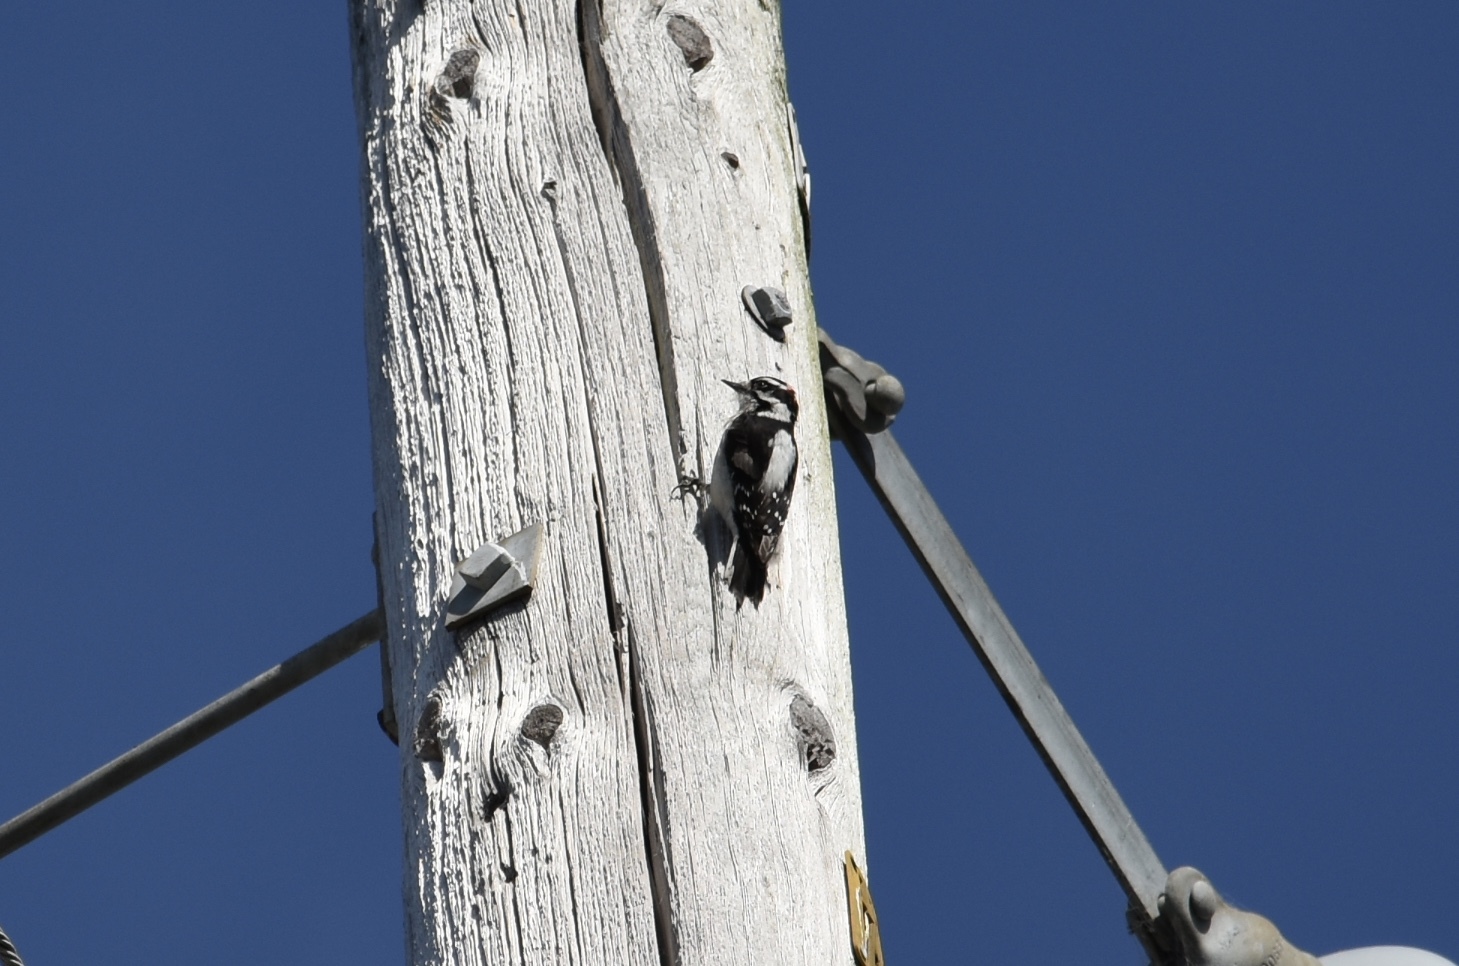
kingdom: Animalia
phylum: Chordata
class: Aves
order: Piciformes
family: Picidae
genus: Dryobates
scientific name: Dryobates pubescens
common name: Downy woodpecker
